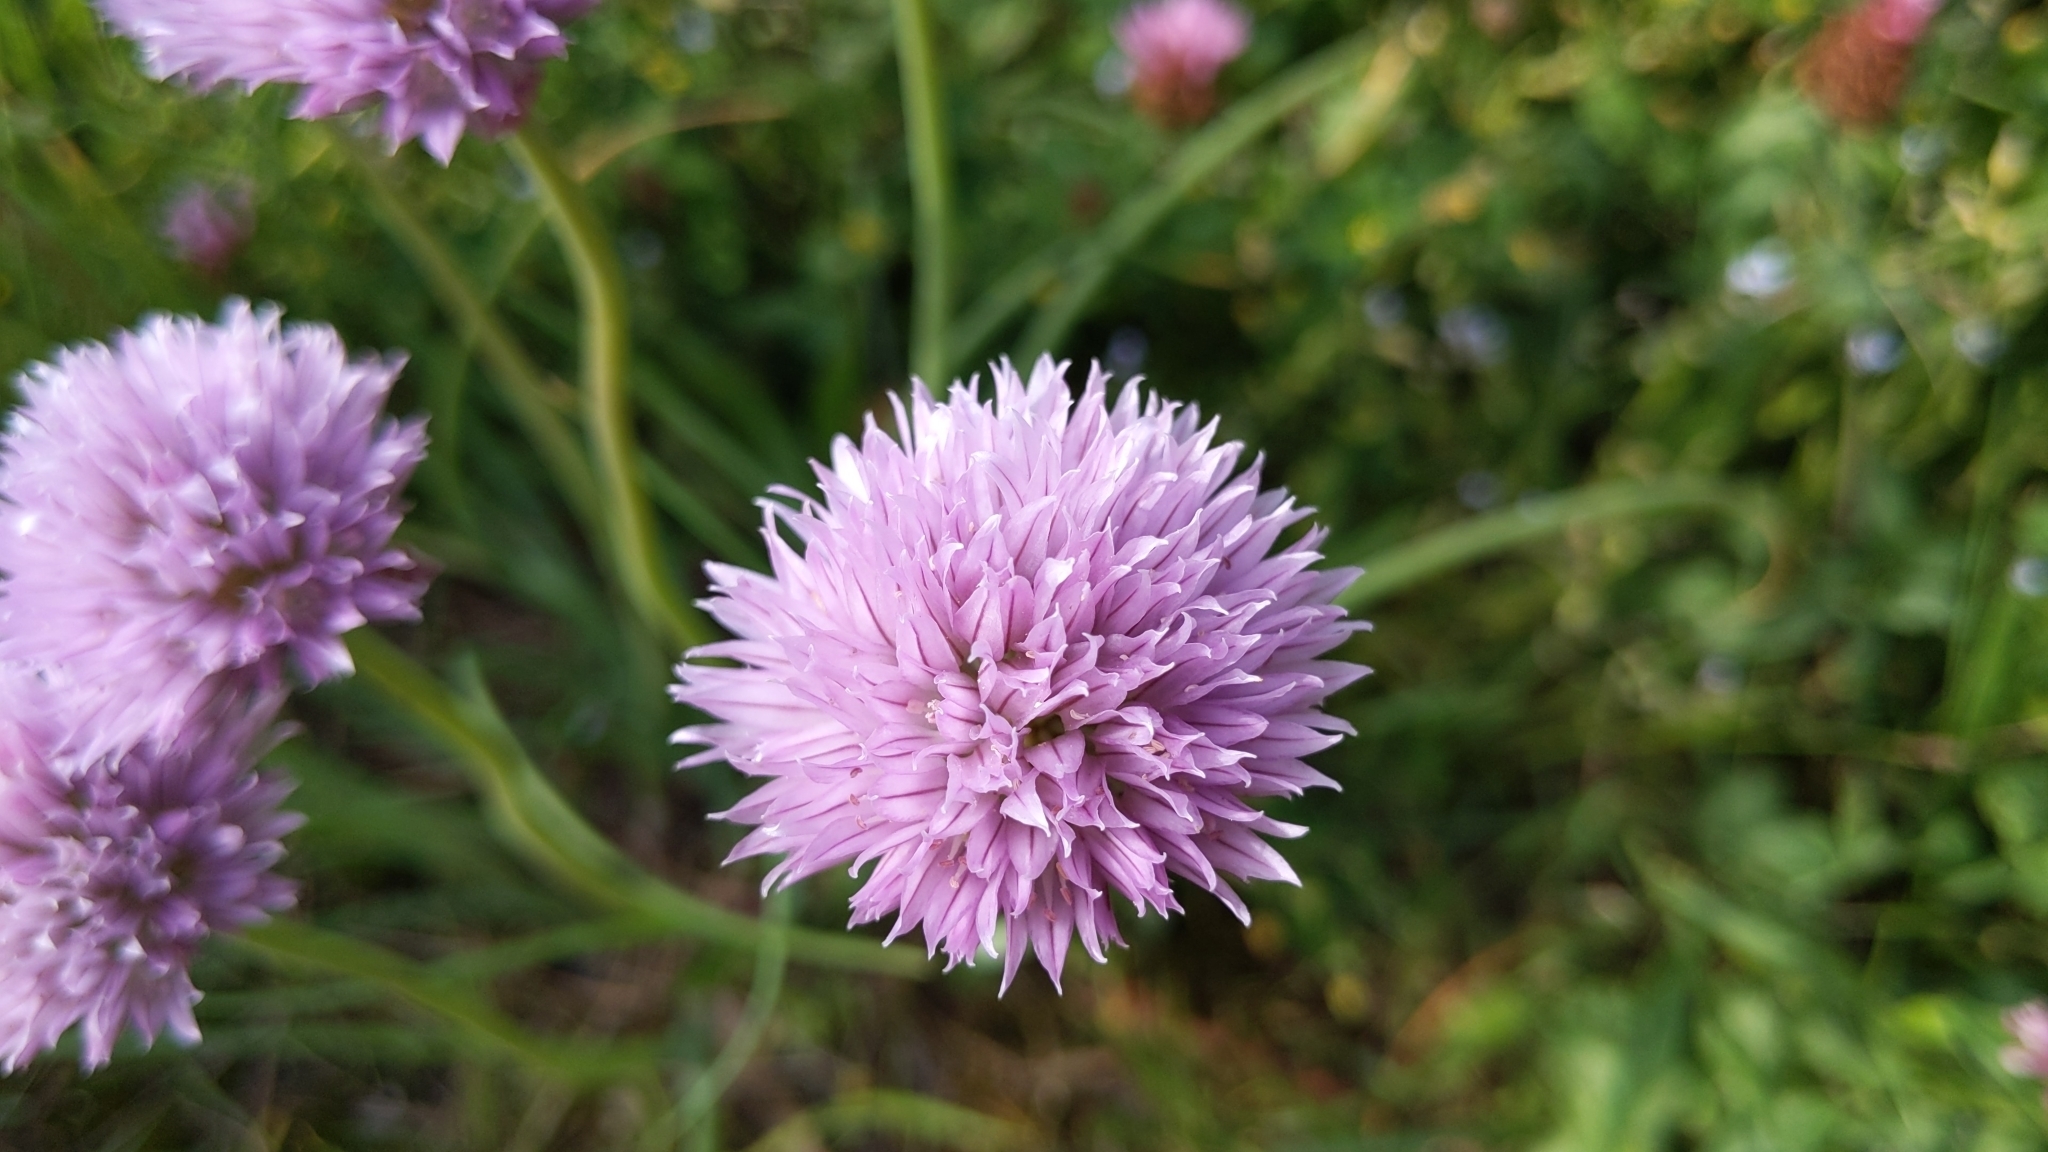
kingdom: Plantae
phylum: Tracheophyta
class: Liliopsida
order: Asparagales
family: Amaryllidaceae
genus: Allium
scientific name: Allium schoenoprasum
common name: Chives
